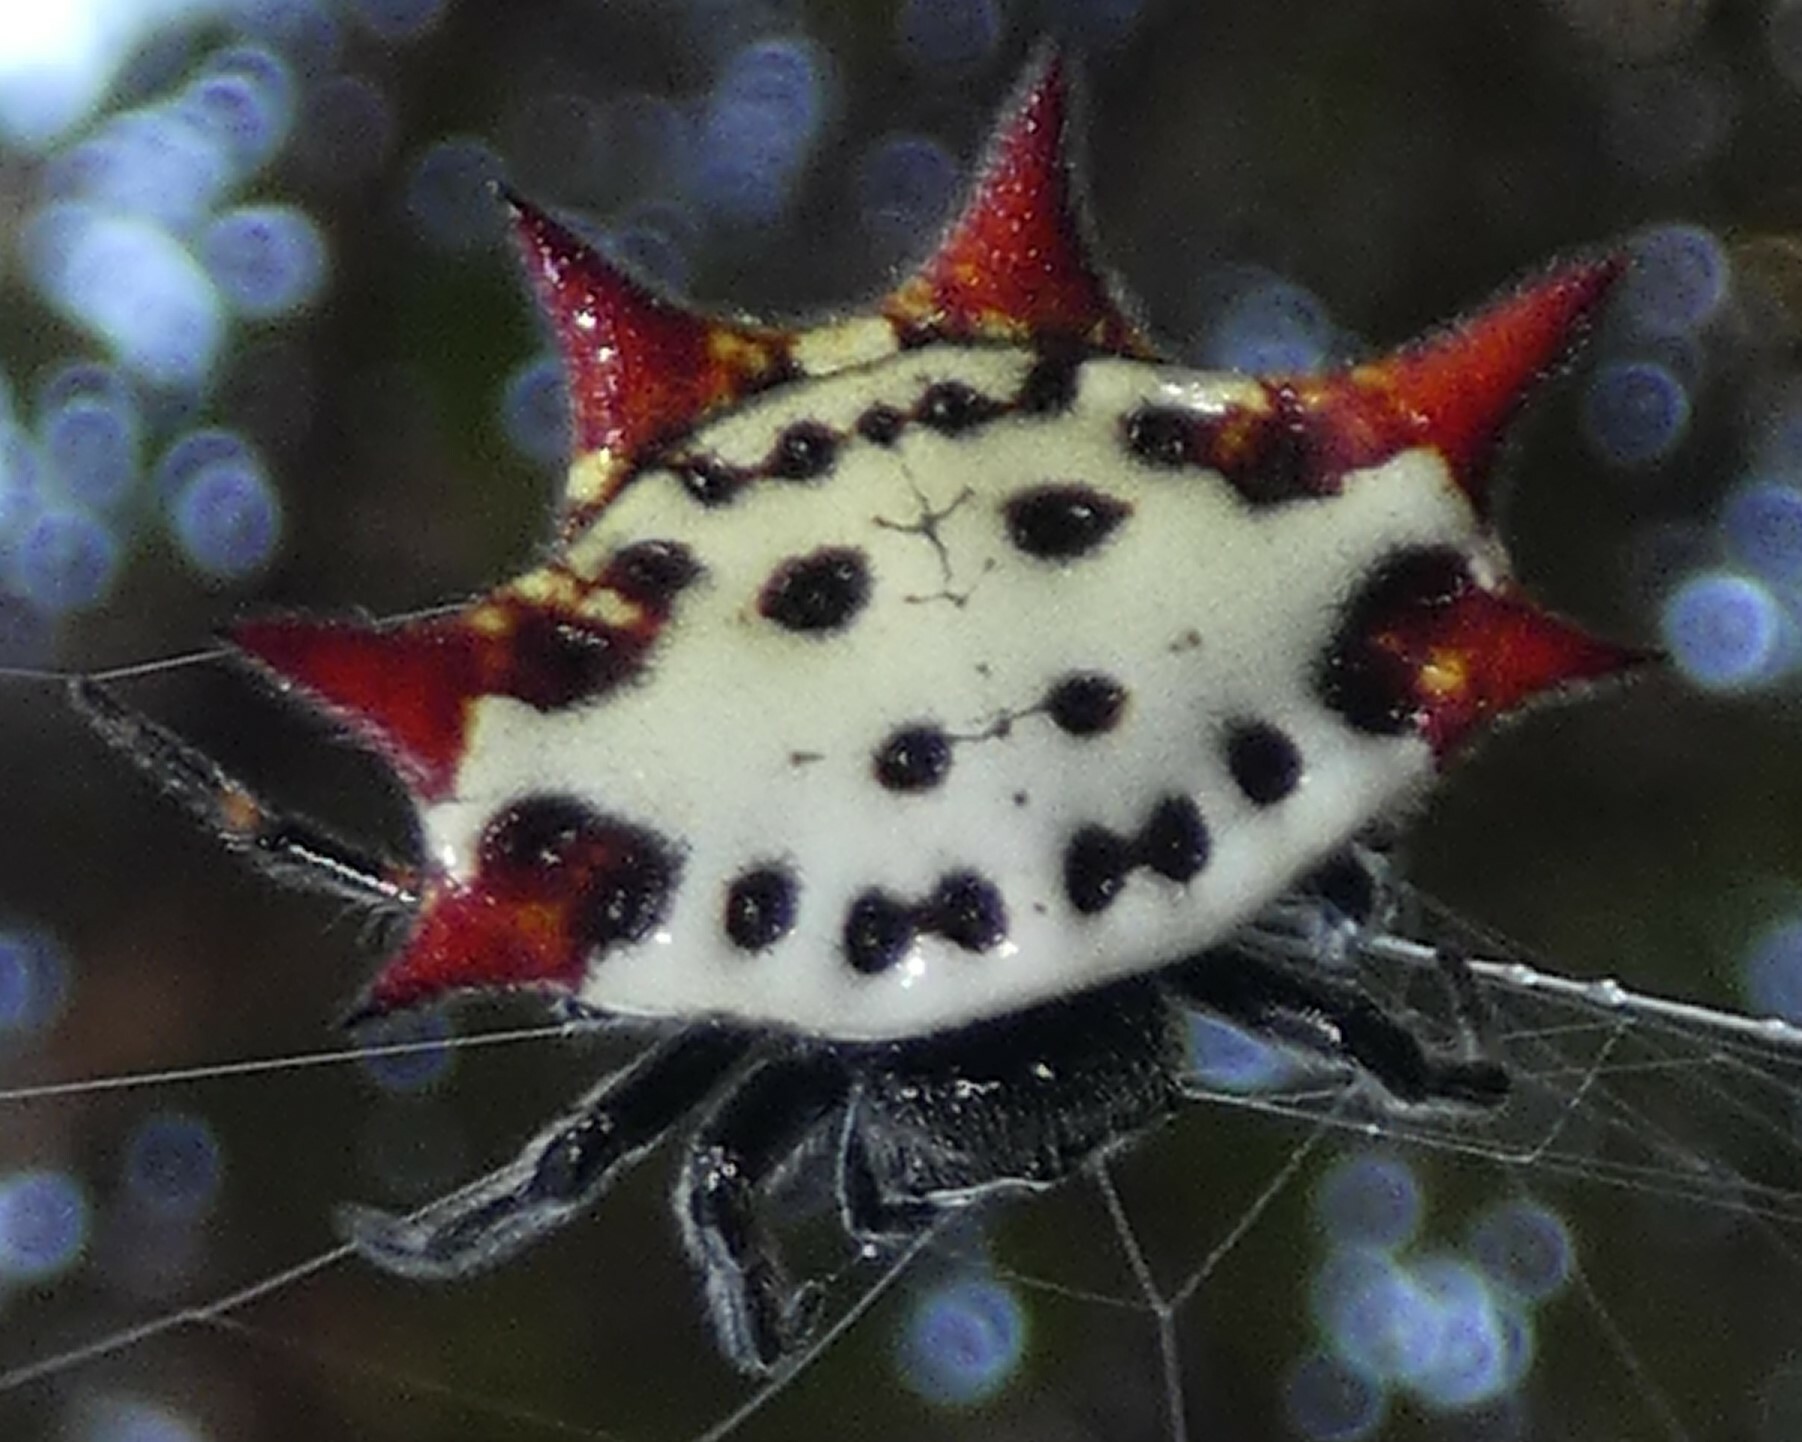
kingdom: Animalia
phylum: Arthropoda
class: Arachnida
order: Araneae
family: Araneidae
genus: Gasteracantha
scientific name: Gasteracantha cancriformis
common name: Orb weavers
